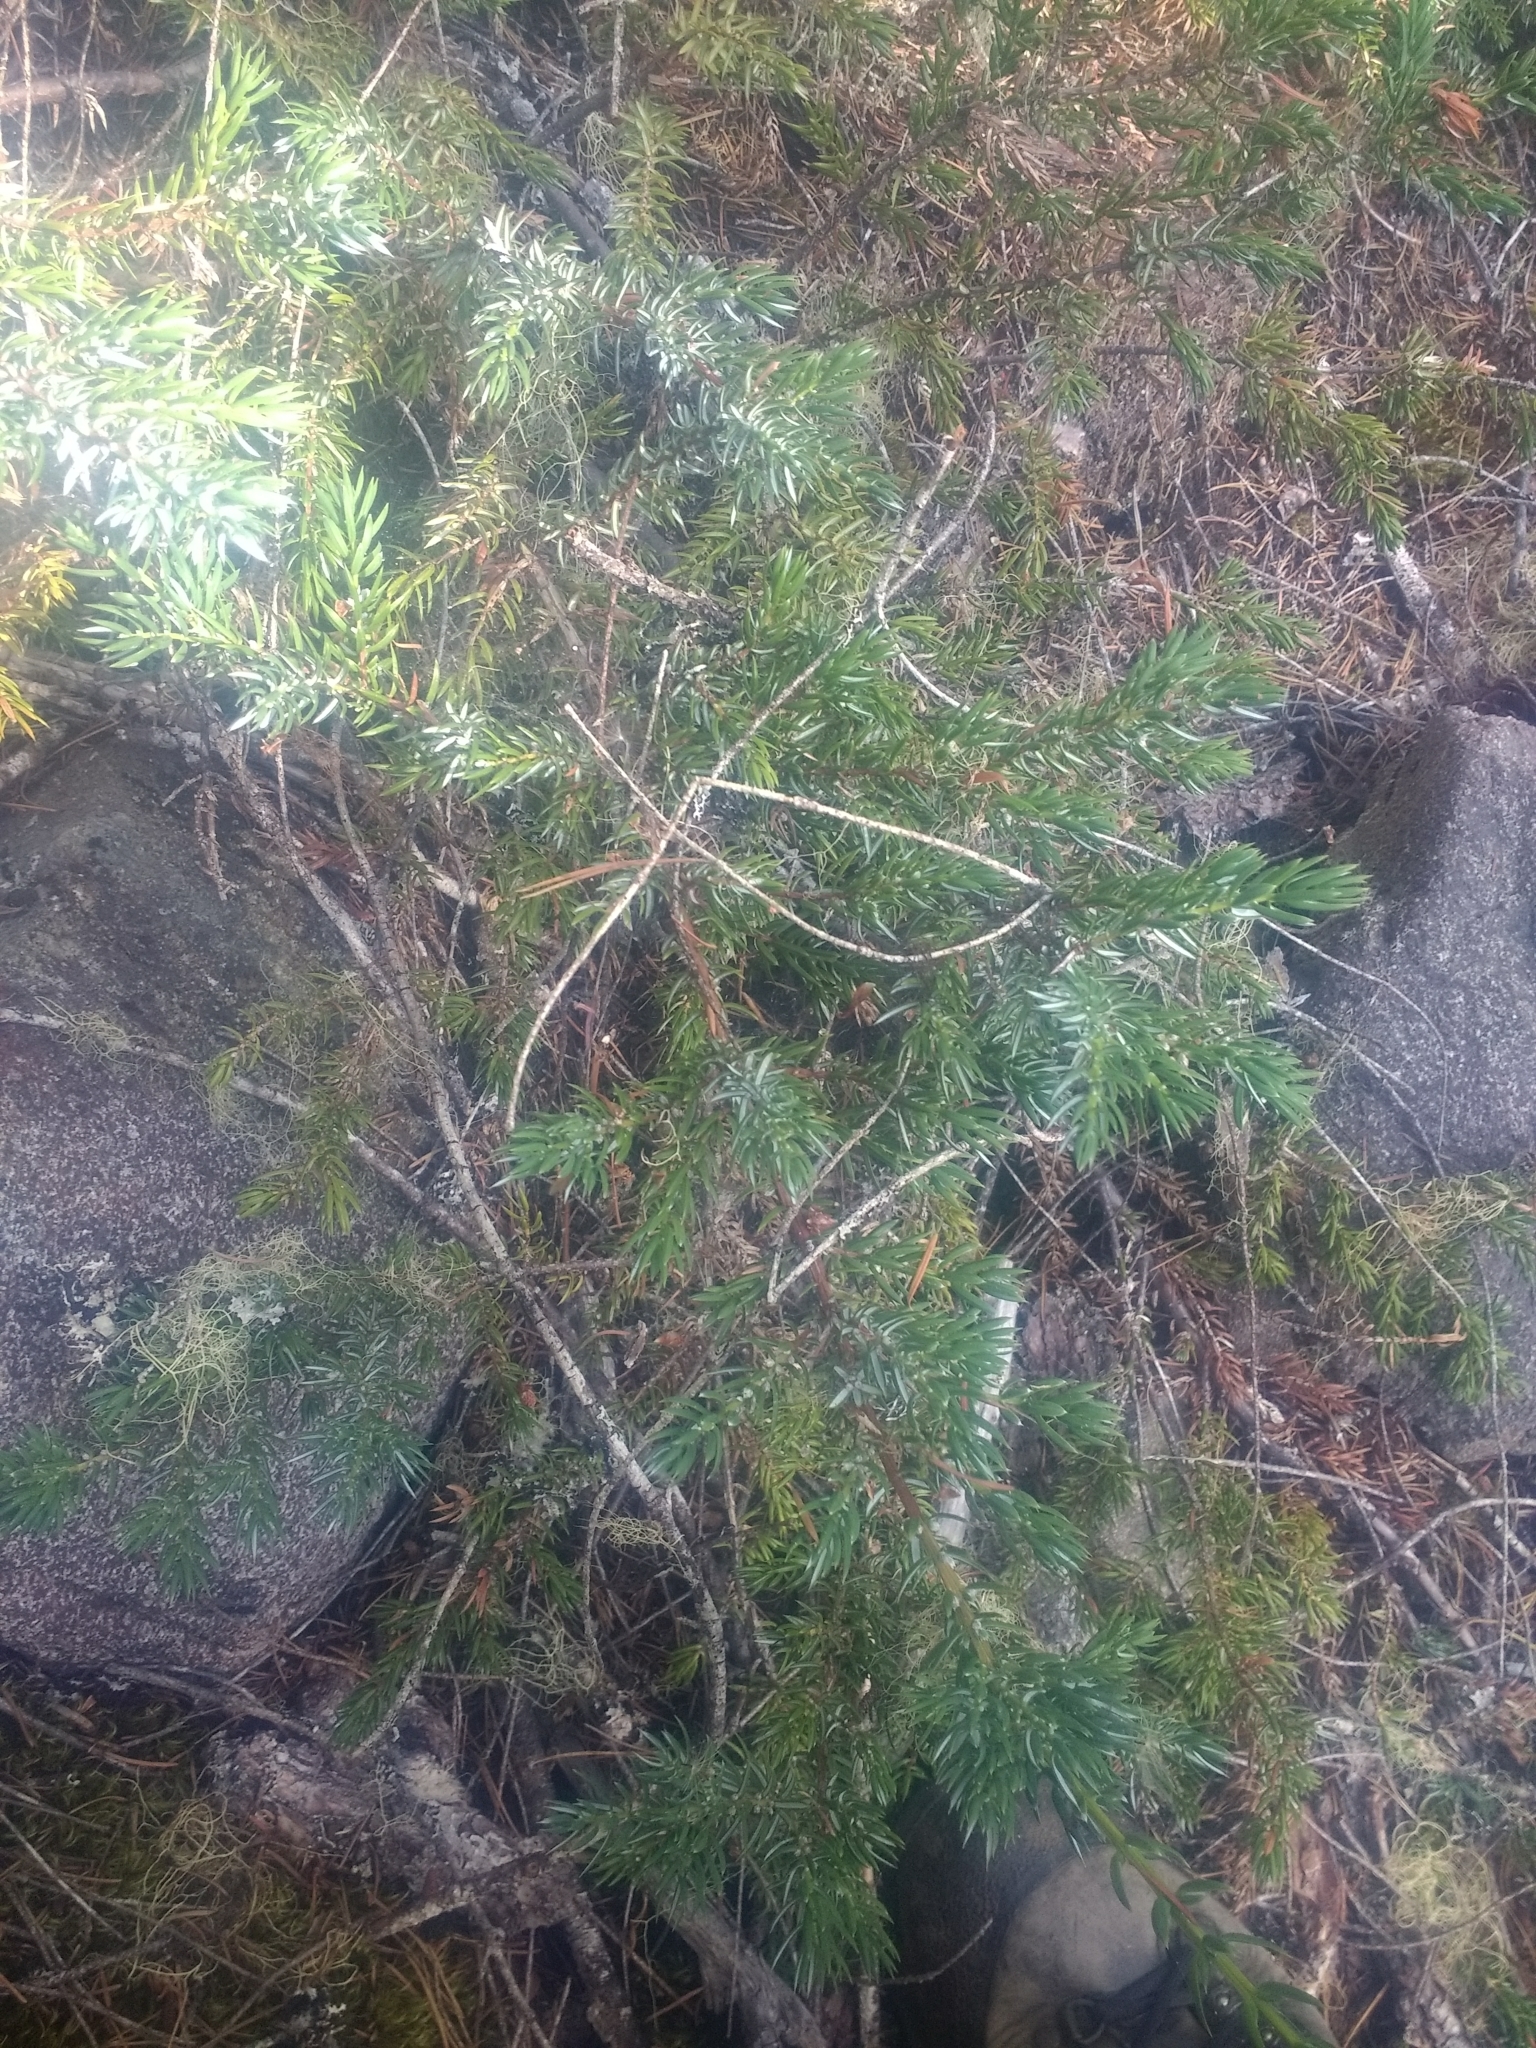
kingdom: Plantae
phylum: Tracheophyta
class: Pinopsida
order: Pinales
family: Cupressaceae
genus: Juniperus
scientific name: Juniperus communis
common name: Common juniper
